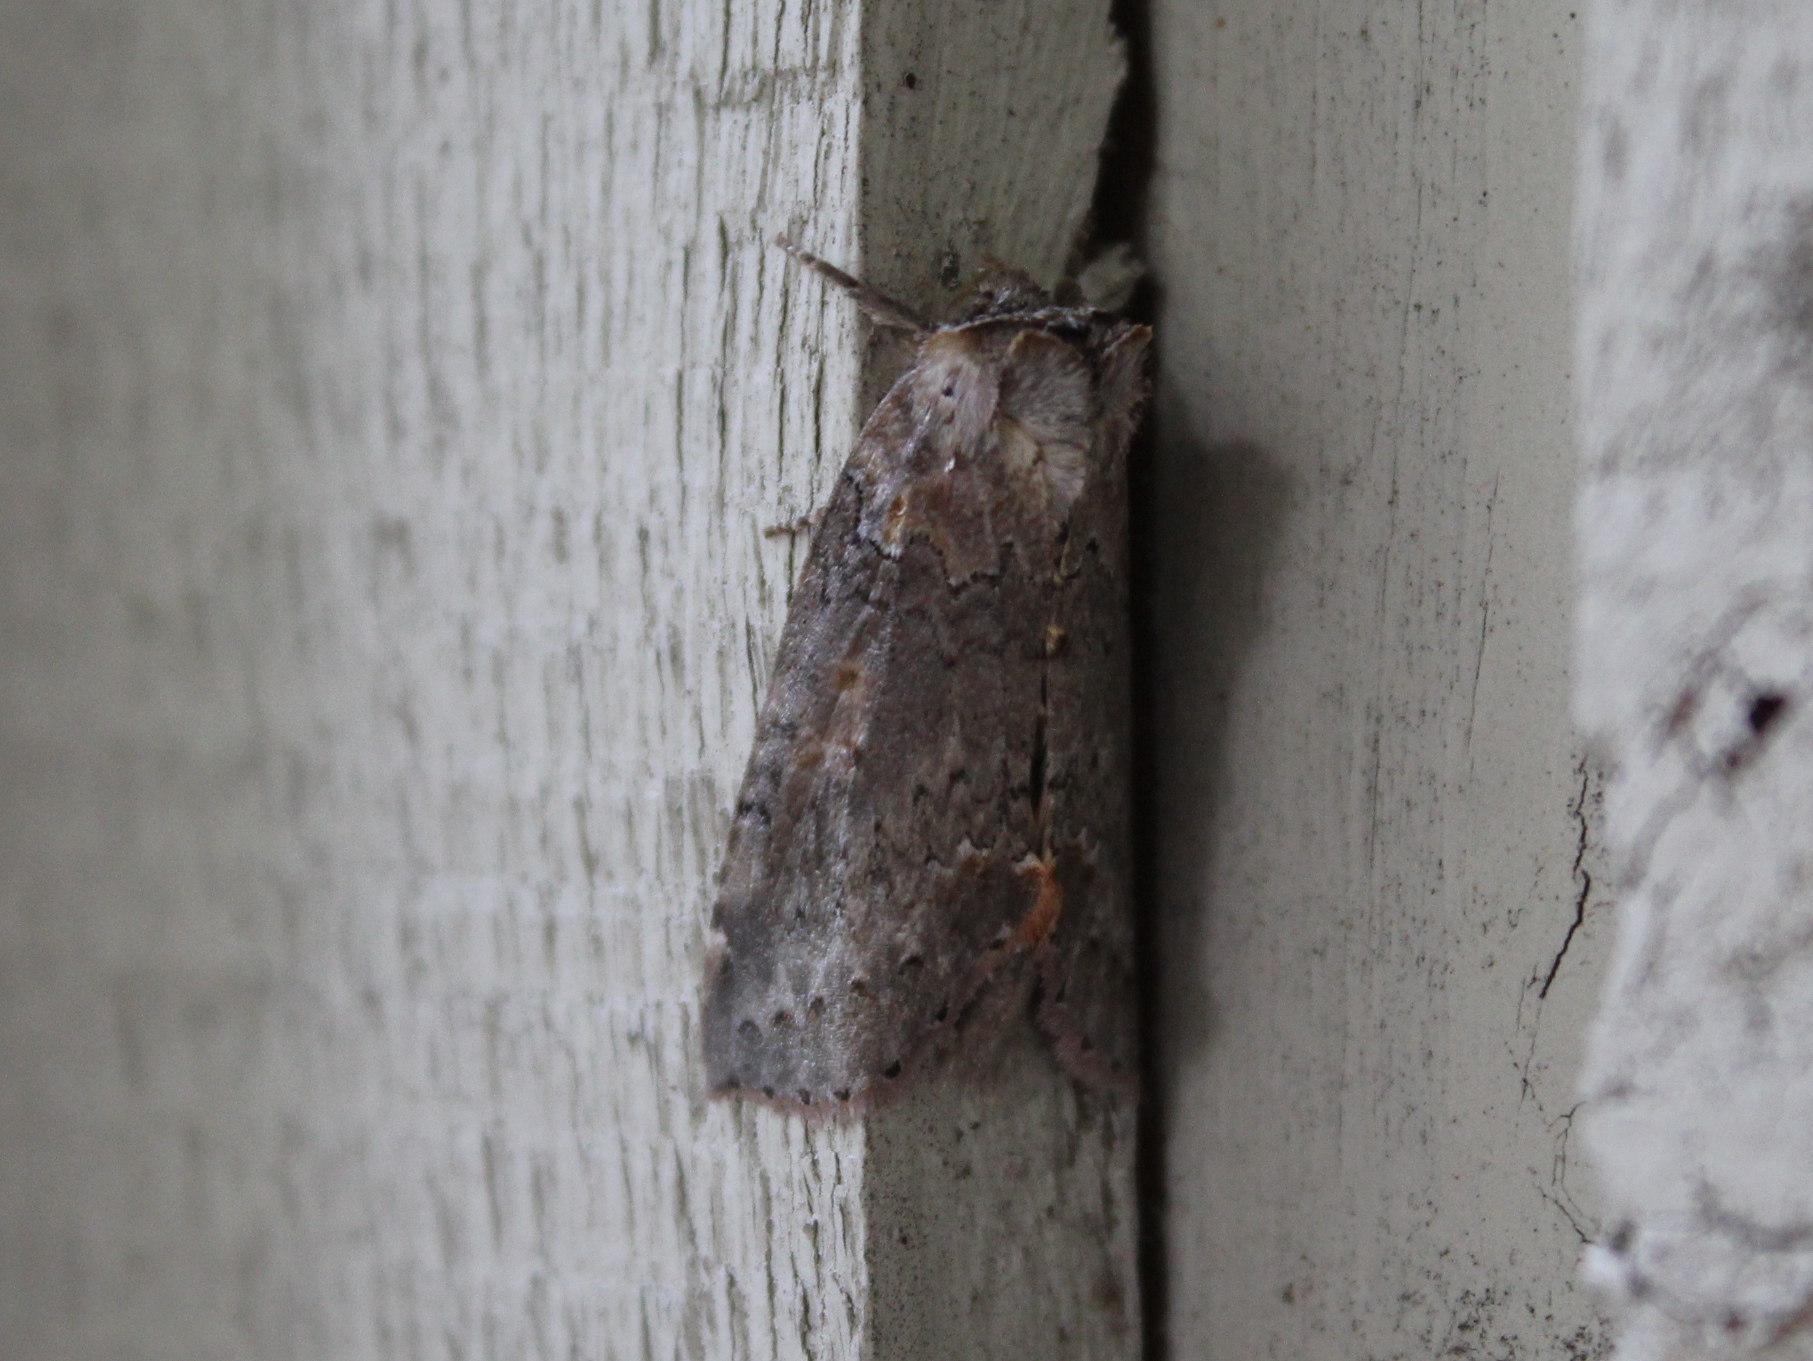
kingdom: Animalia
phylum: Arthropoda
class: Insecta
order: Lepidoptera
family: Drepanidae
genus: Pseudothyatira
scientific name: Pseudothyatira cymatophoroides
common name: Tufted thyatirid moth
